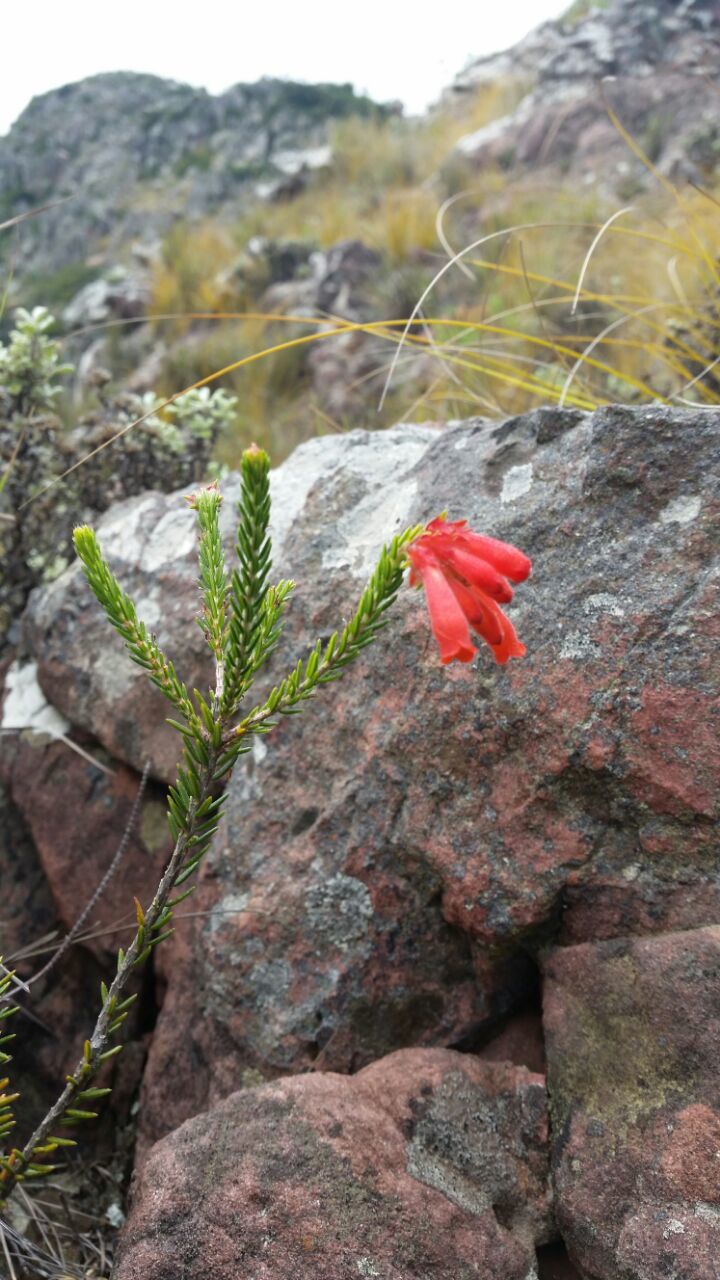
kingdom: Plantae
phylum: Tracheophyta
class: Magnoliopsida
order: Ericales
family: Ericaceae
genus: Erica
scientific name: Erica cerinthoides
